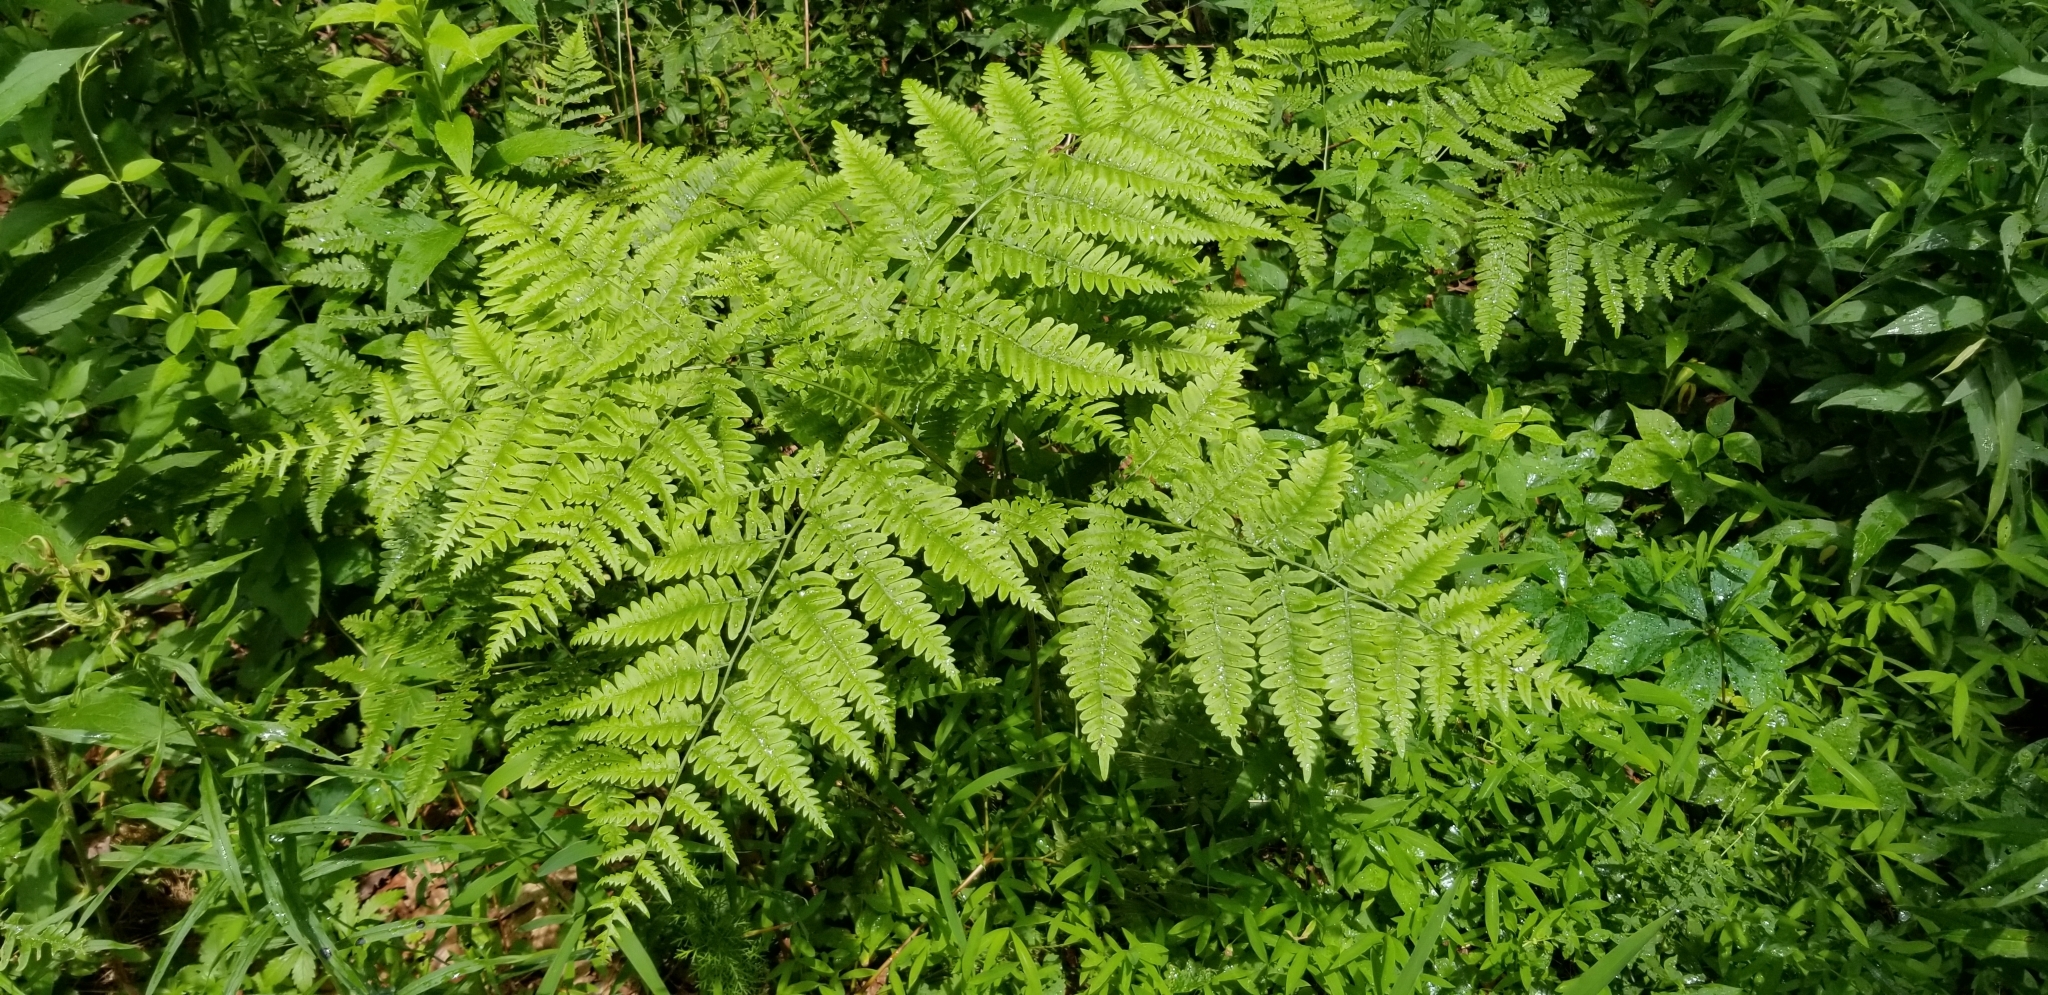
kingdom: Plantae
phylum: Tracheophyta
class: Polypodiopsida
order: Polypodiales
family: Dennstaedtiaceae
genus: Pteridium
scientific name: Pteridium aquilinum
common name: Bracken
